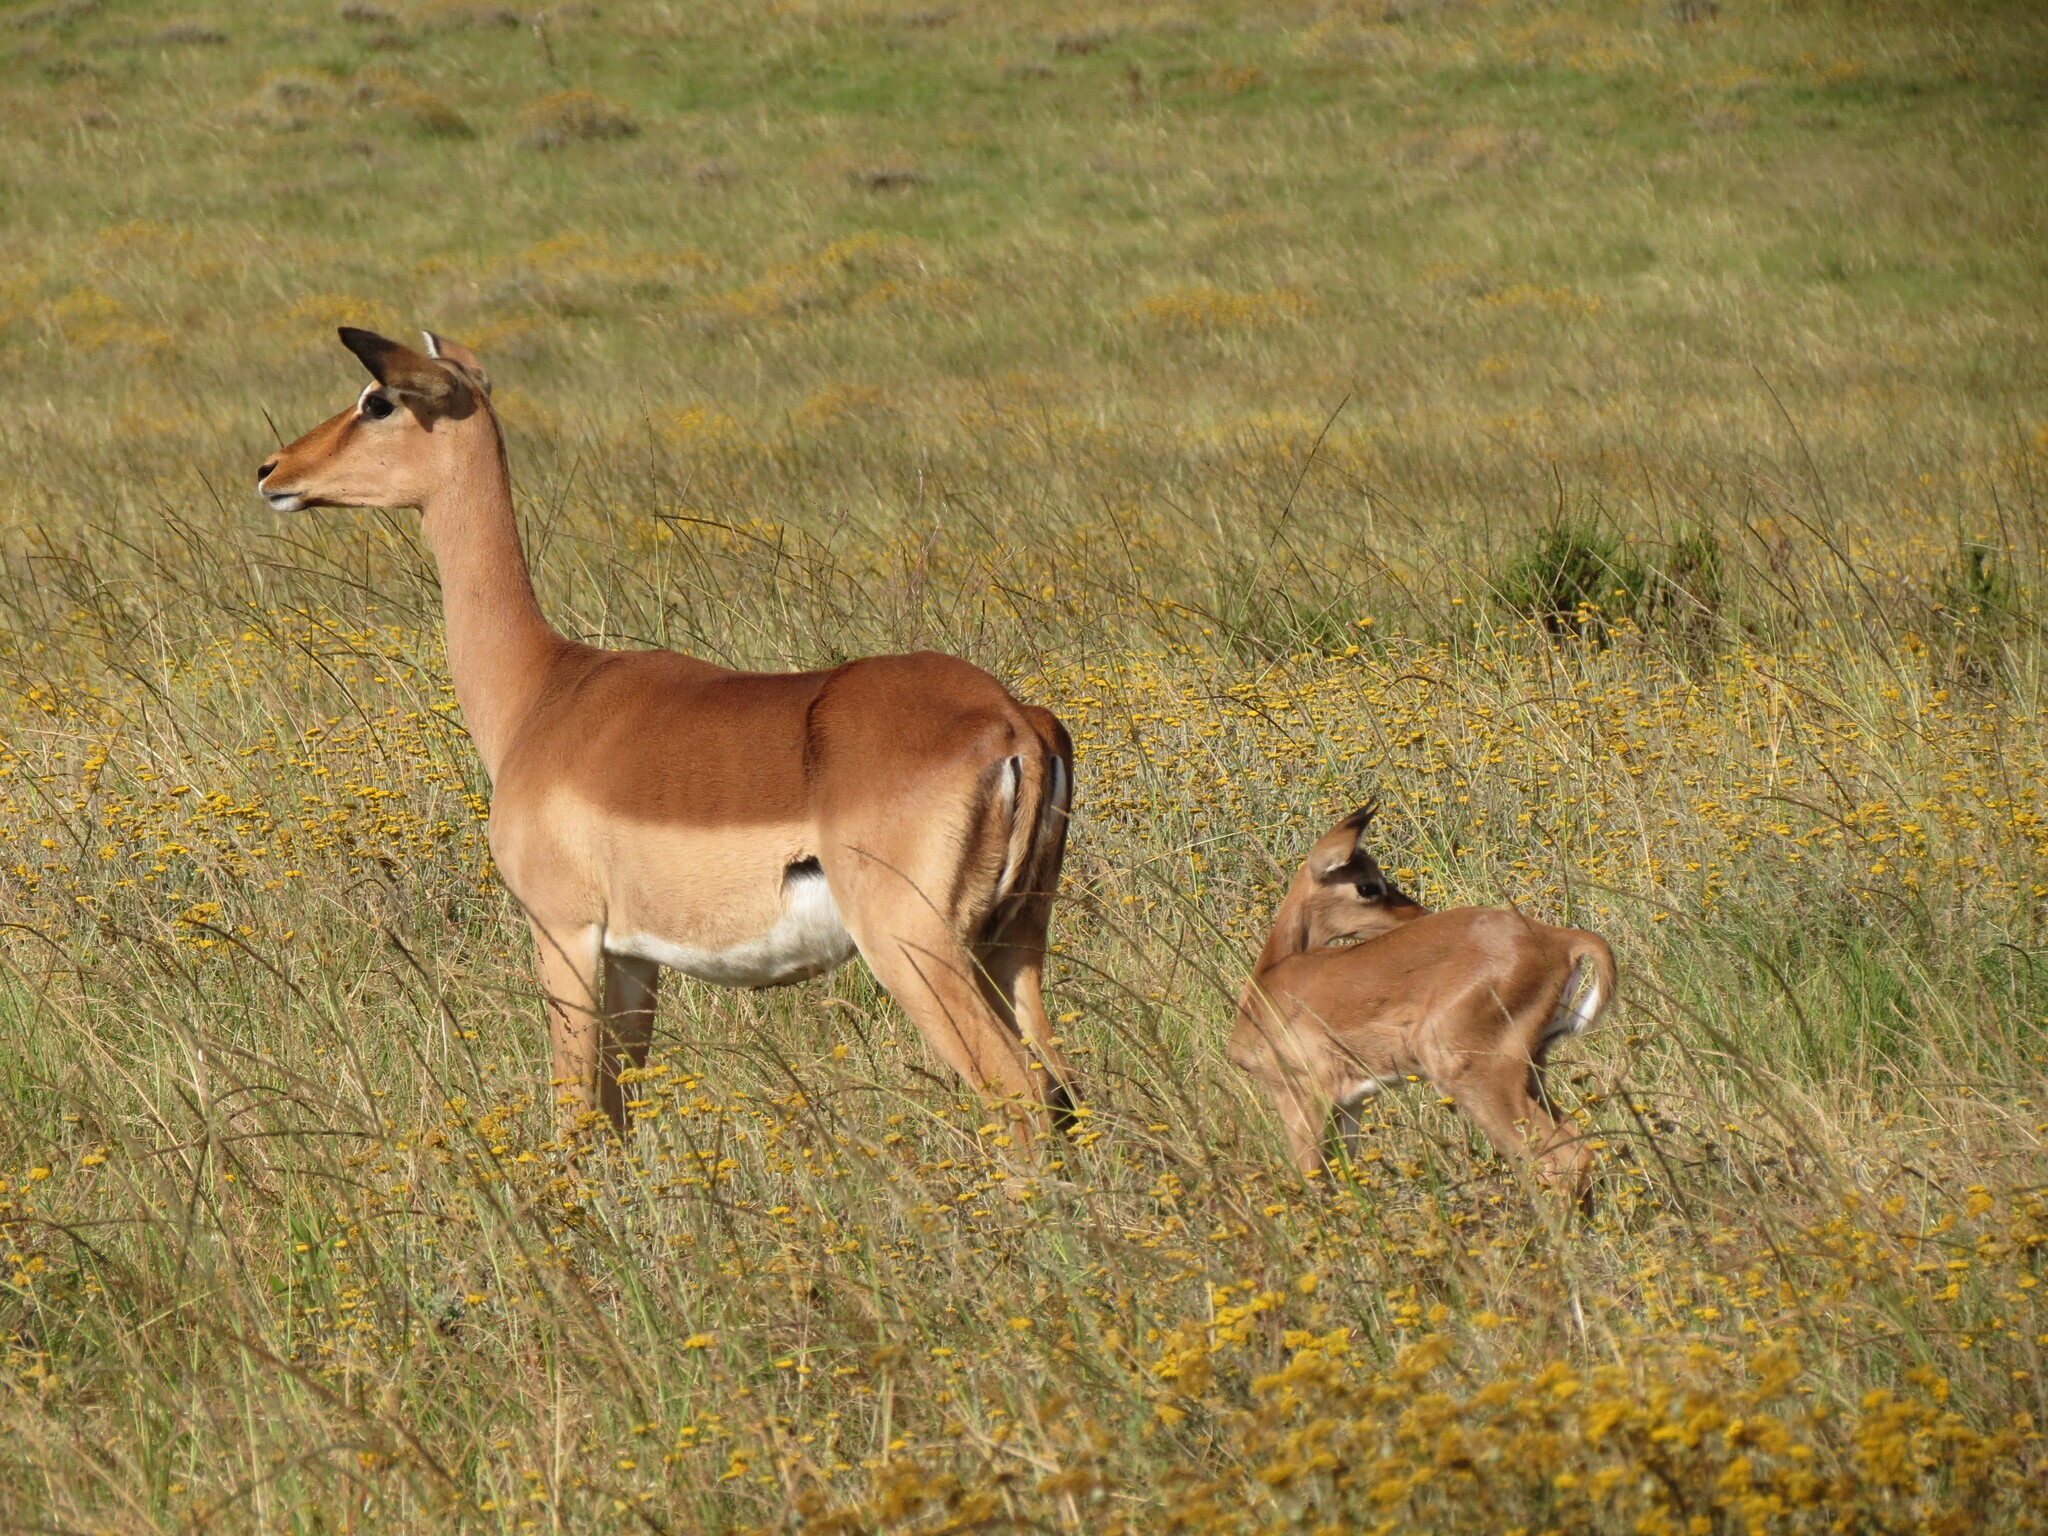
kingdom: Animalia
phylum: Chordata
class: Mammalia
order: Artiodactyla
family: Bovidae
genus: Aepyceros
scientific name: Aepyceros melampus
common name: Impala
